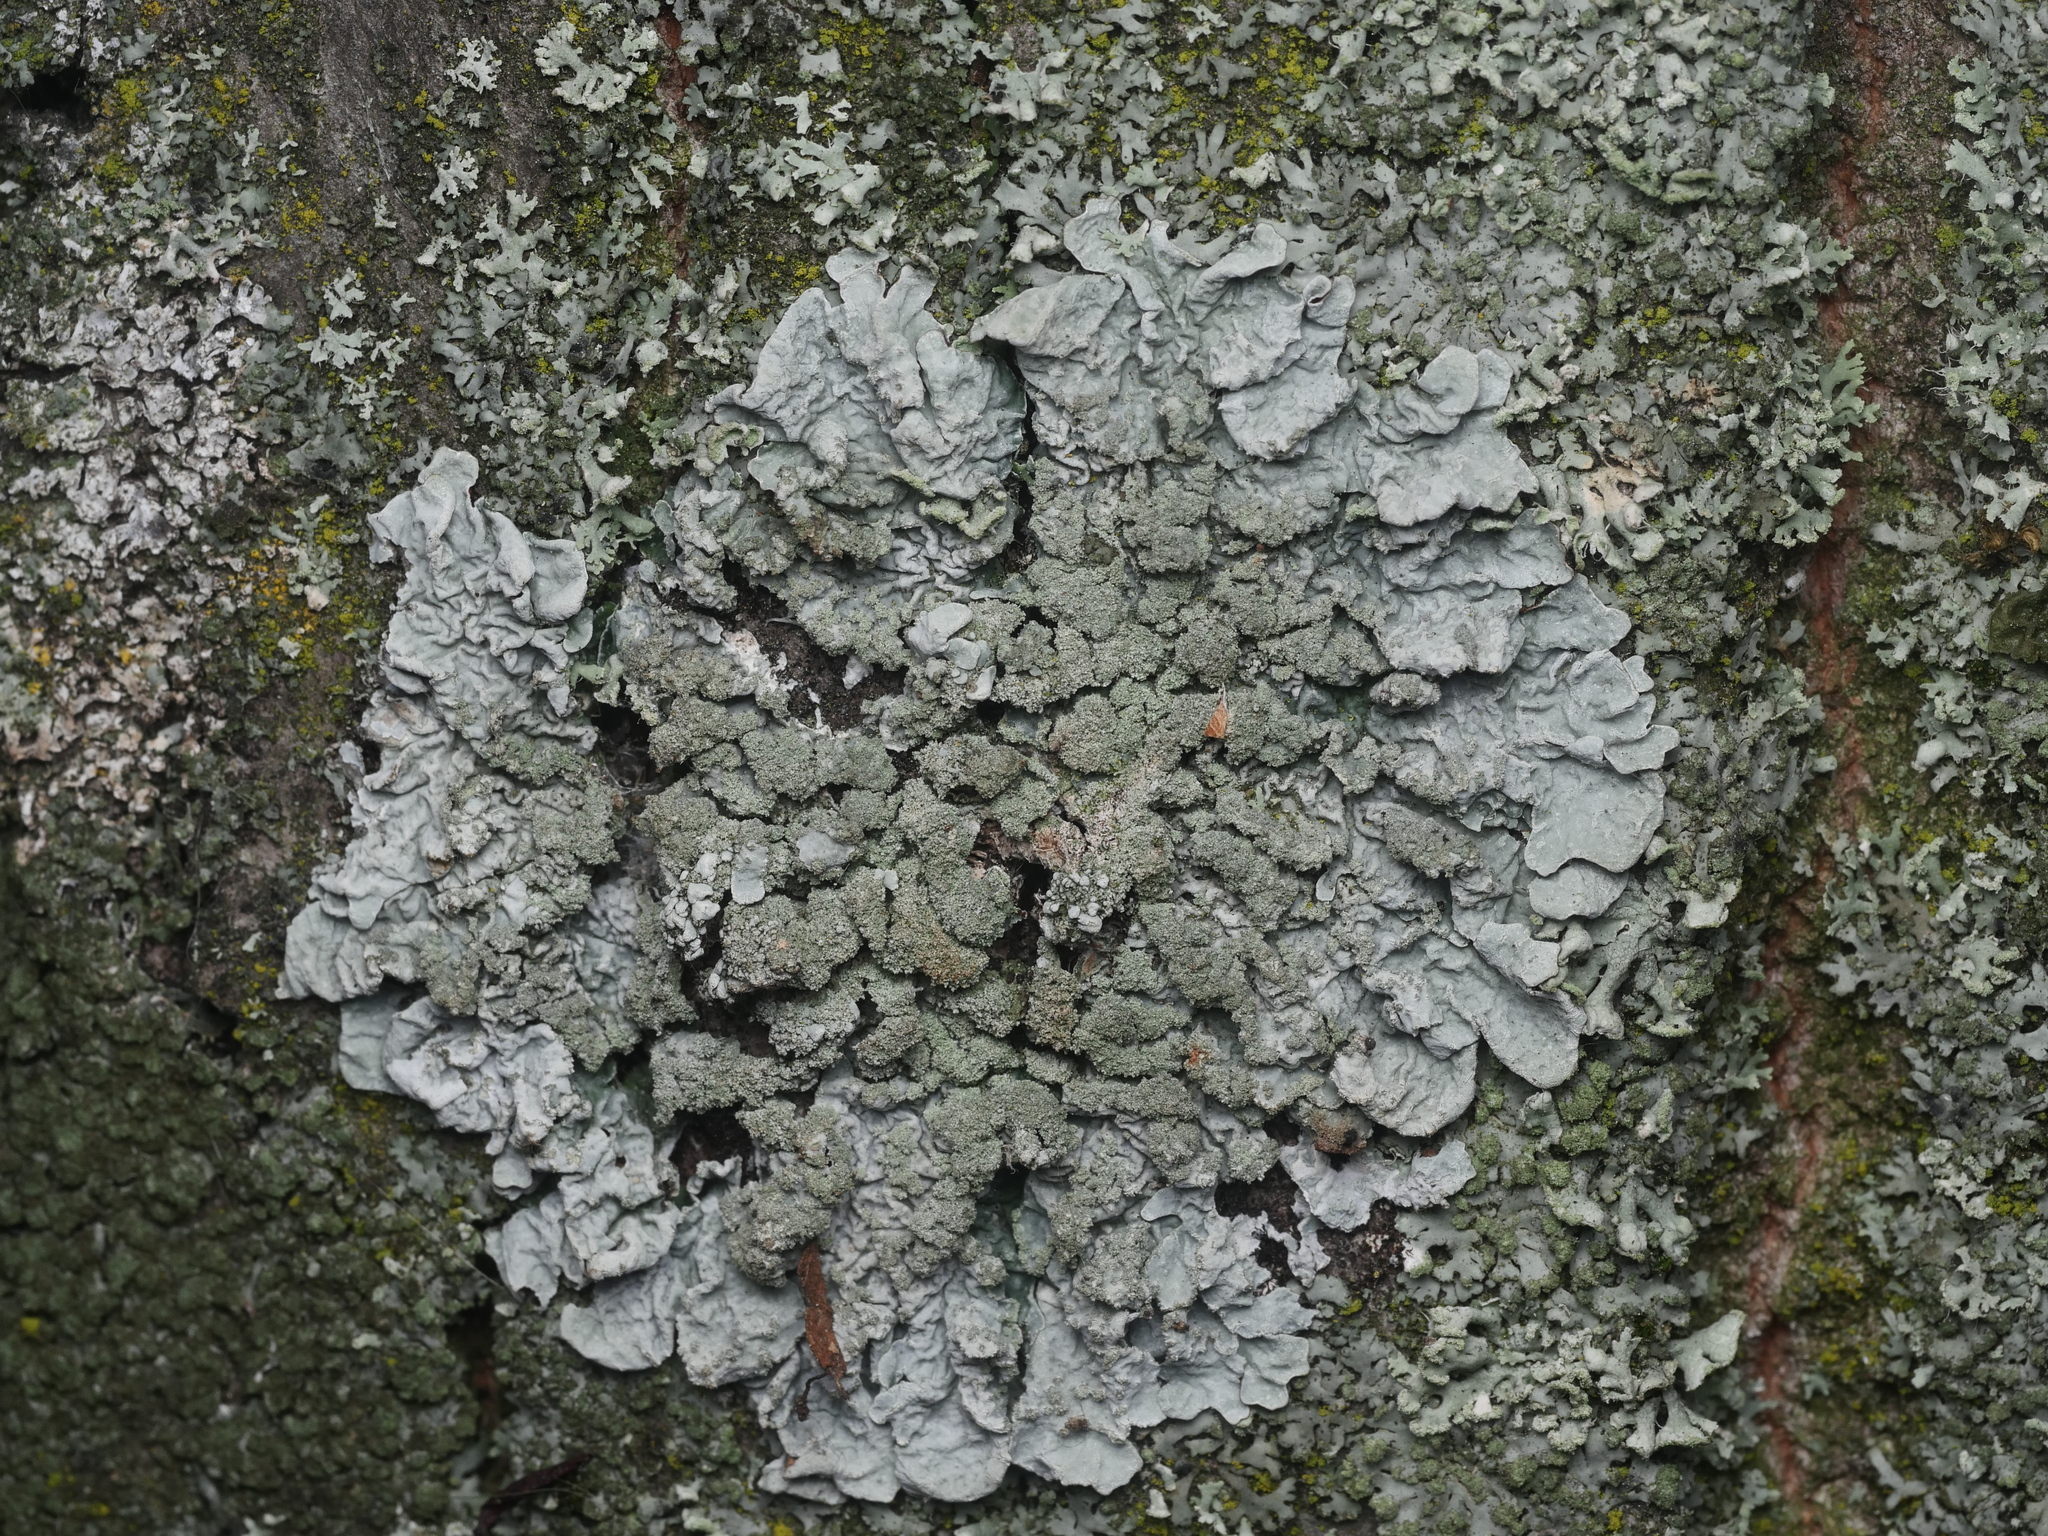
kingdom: Fungi
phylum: Ascomycota
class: Lecanoromycetes
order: Lecanorales
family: Parmeliaceae
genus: Parmelia
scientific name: Parmelia sulcata
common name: Netted shield lichen
